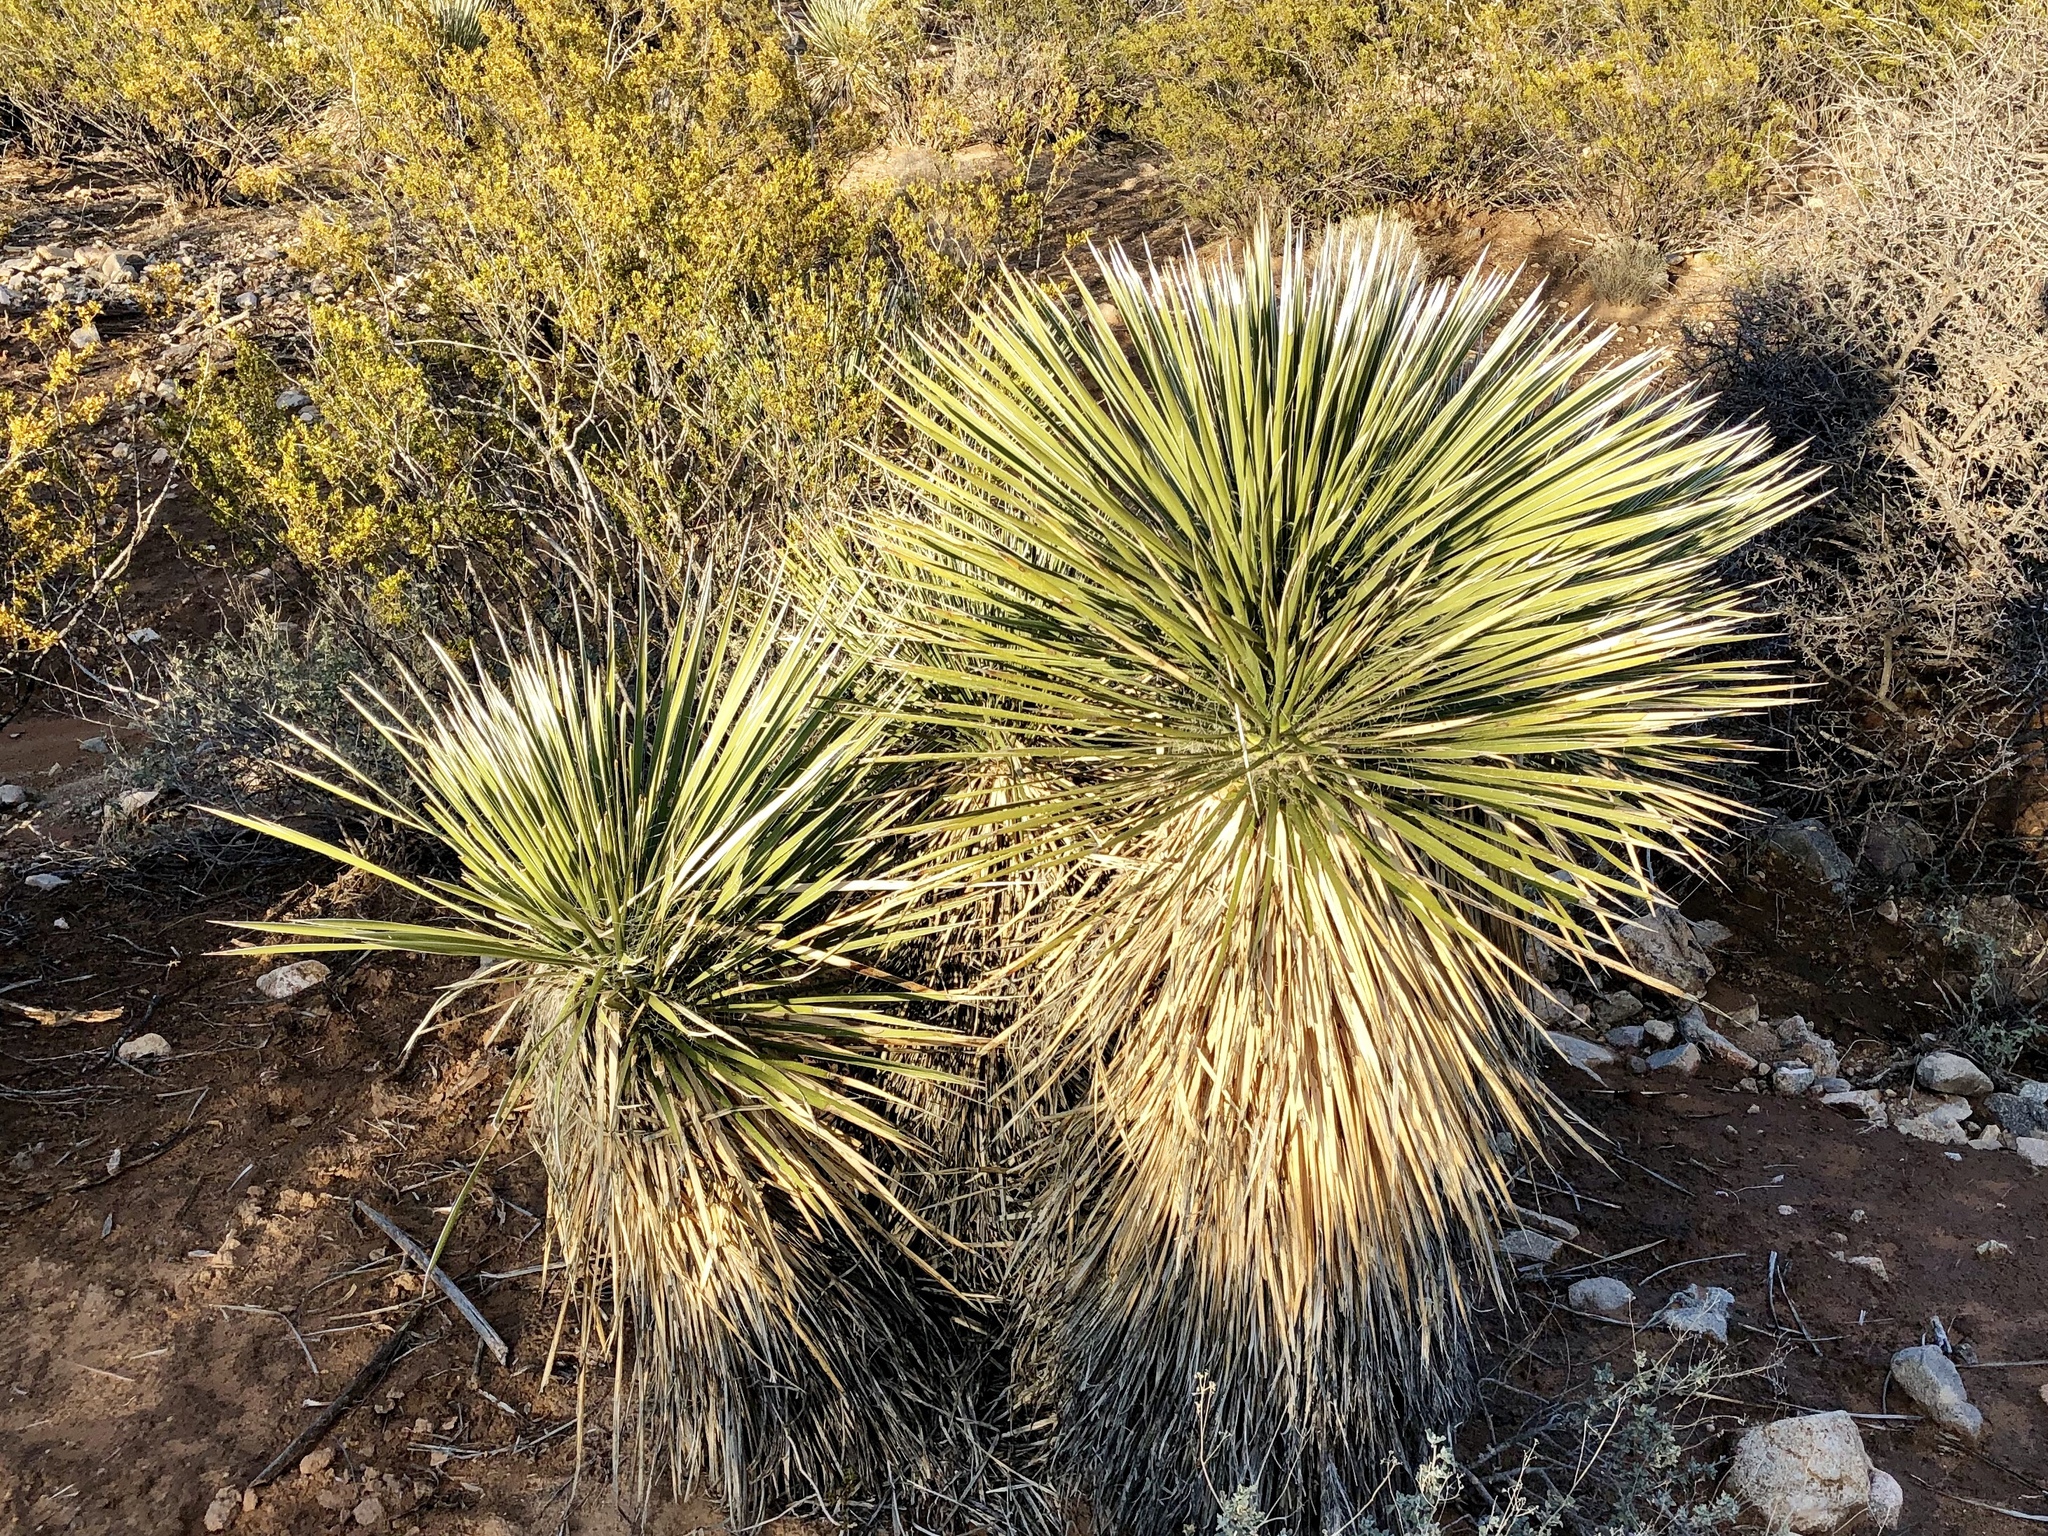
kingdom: Plantae
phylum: Tracheophyta
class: Liliopsida
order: Asparagales
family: Asparagaceae
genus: Yucca
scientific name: Yucca elata
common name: Palmella
